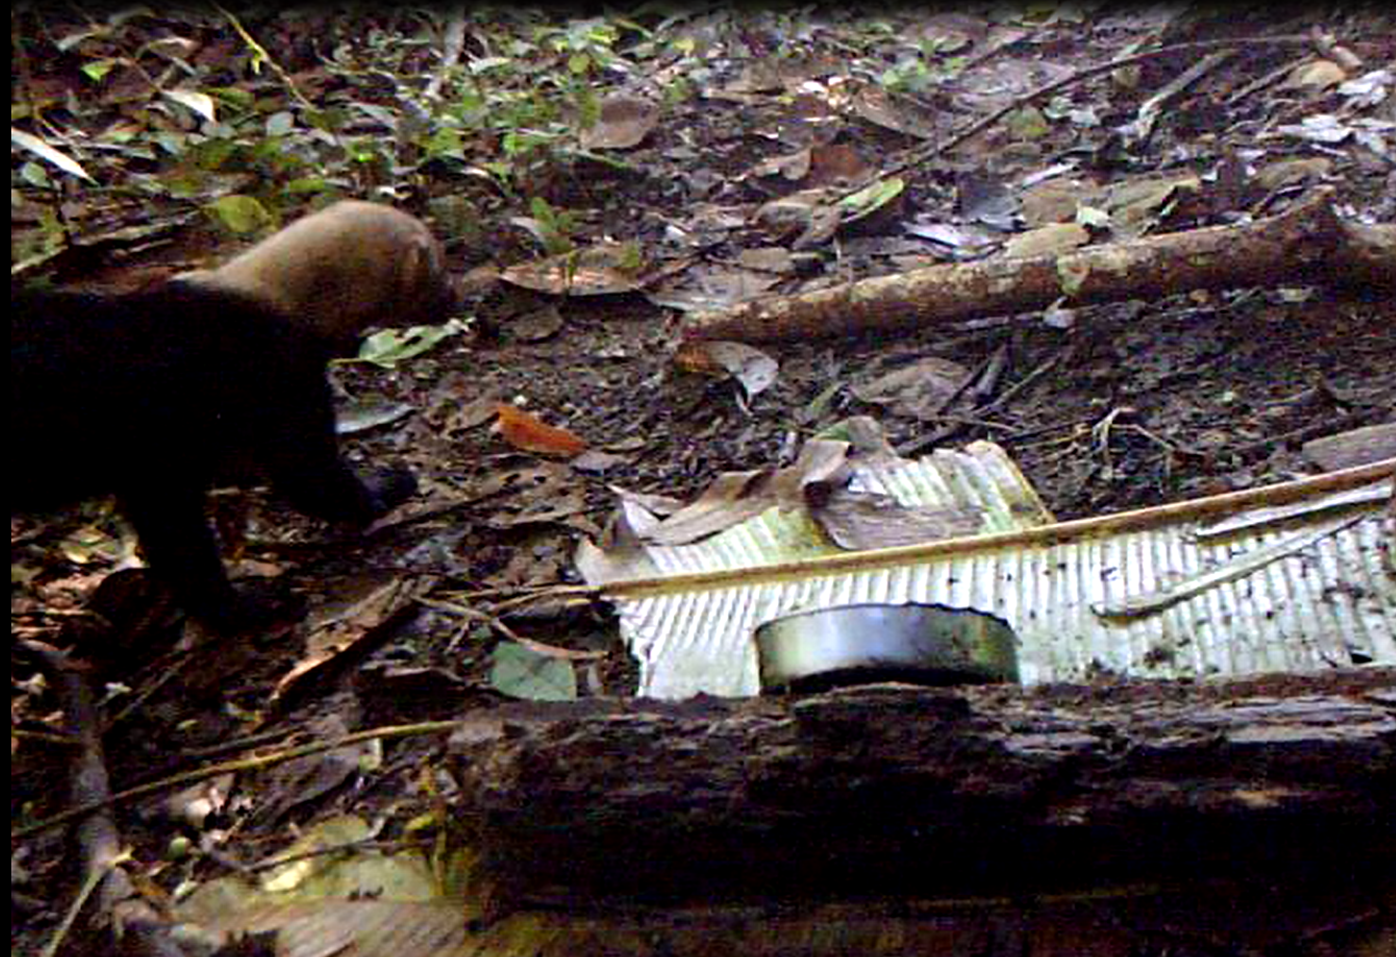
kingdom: Animalia
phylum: Chordata
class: Mammalia
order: Carnivora
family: Mustelidae
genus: Eira
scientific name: Eira barbara
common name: Tayra
